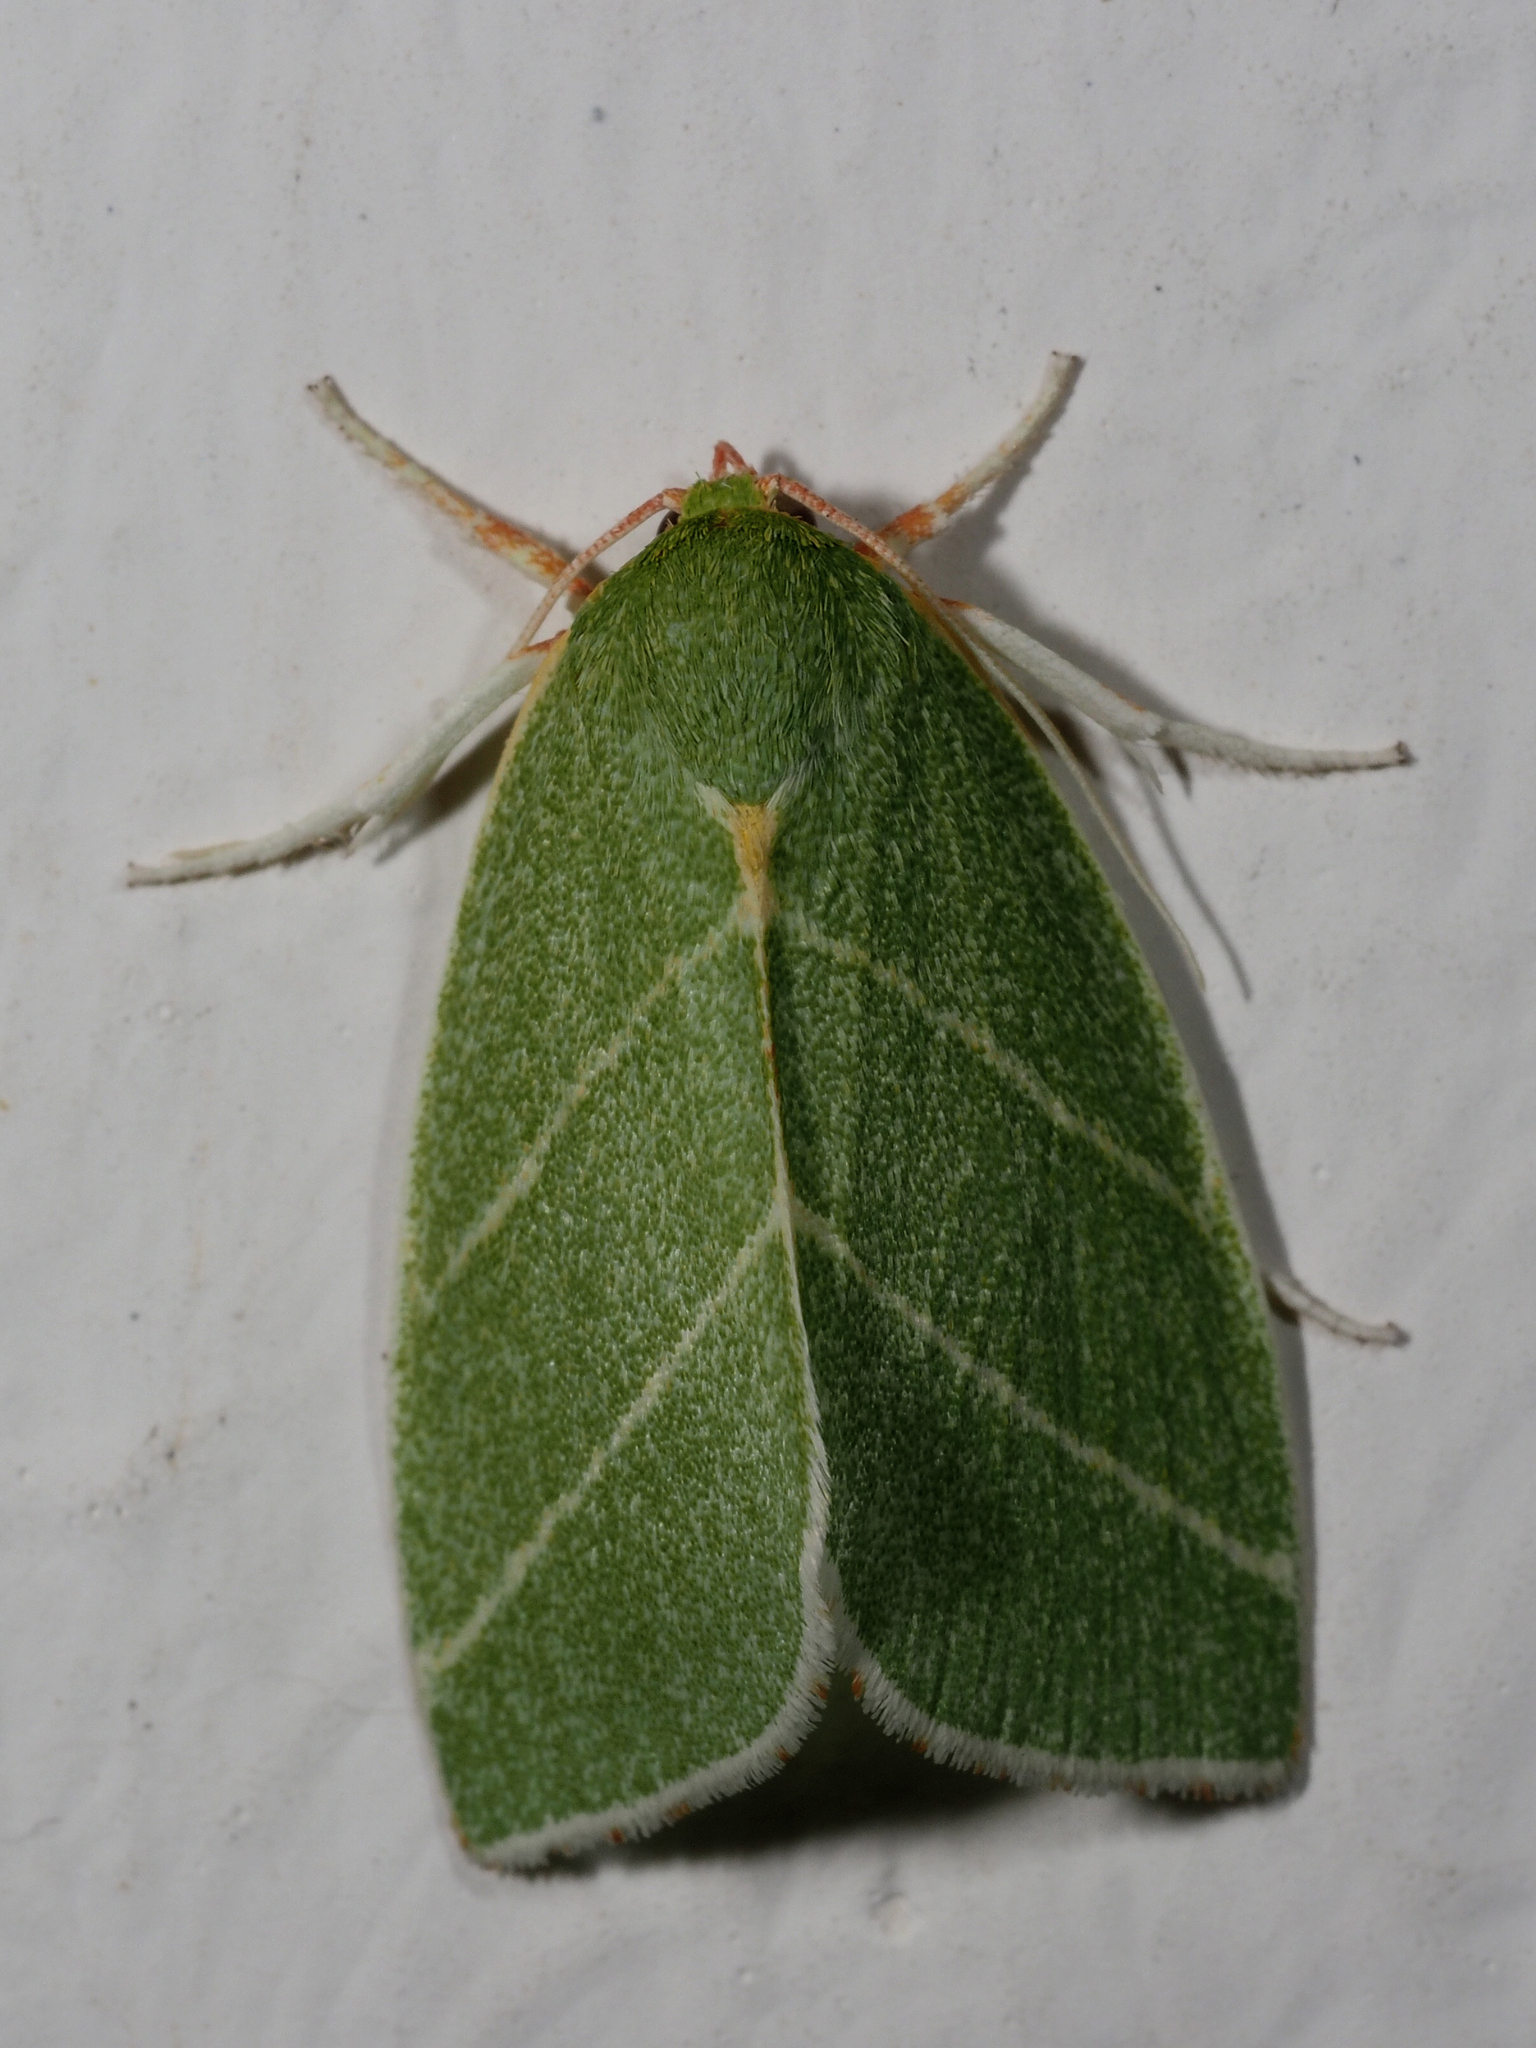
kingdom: Animalia
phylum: Arthropoda
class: Insecta
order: Lepidoptera
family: Nolidae
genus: Bena
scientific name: Bena bicolorana
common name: Scarce silver-lines
